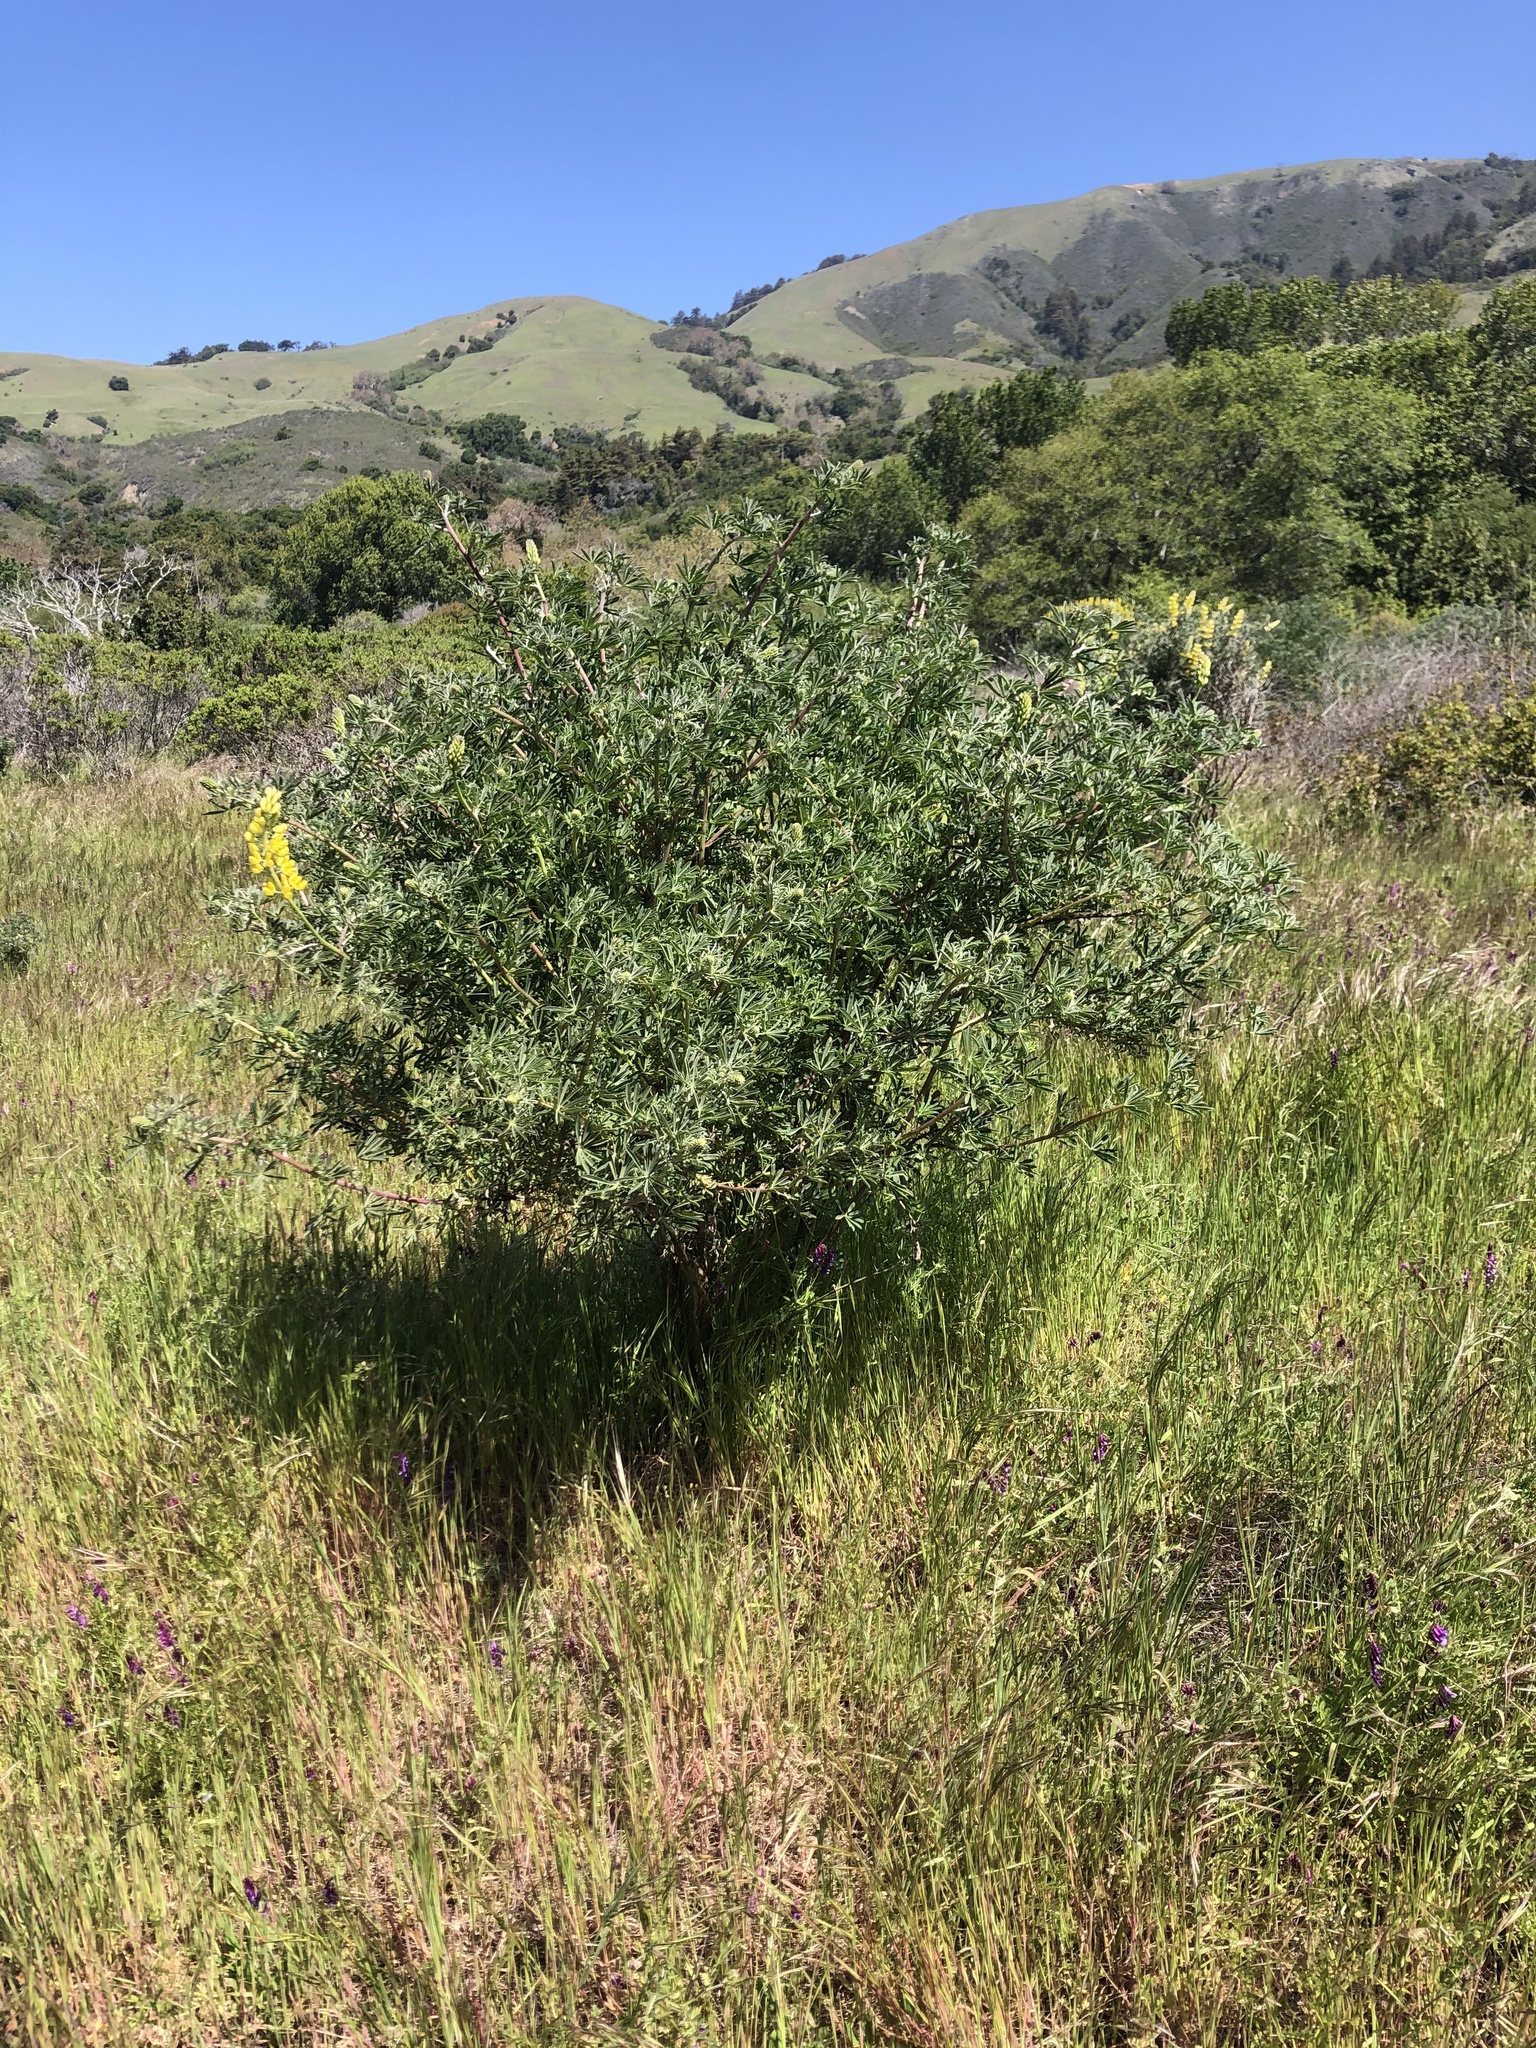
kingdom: Plantae
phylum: Tracheophyta
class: Magnoliopsida
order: Fabales
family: Fabaceae
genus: Lupinus
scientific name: Lupinus arboreus
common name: Yellow bush lupine
